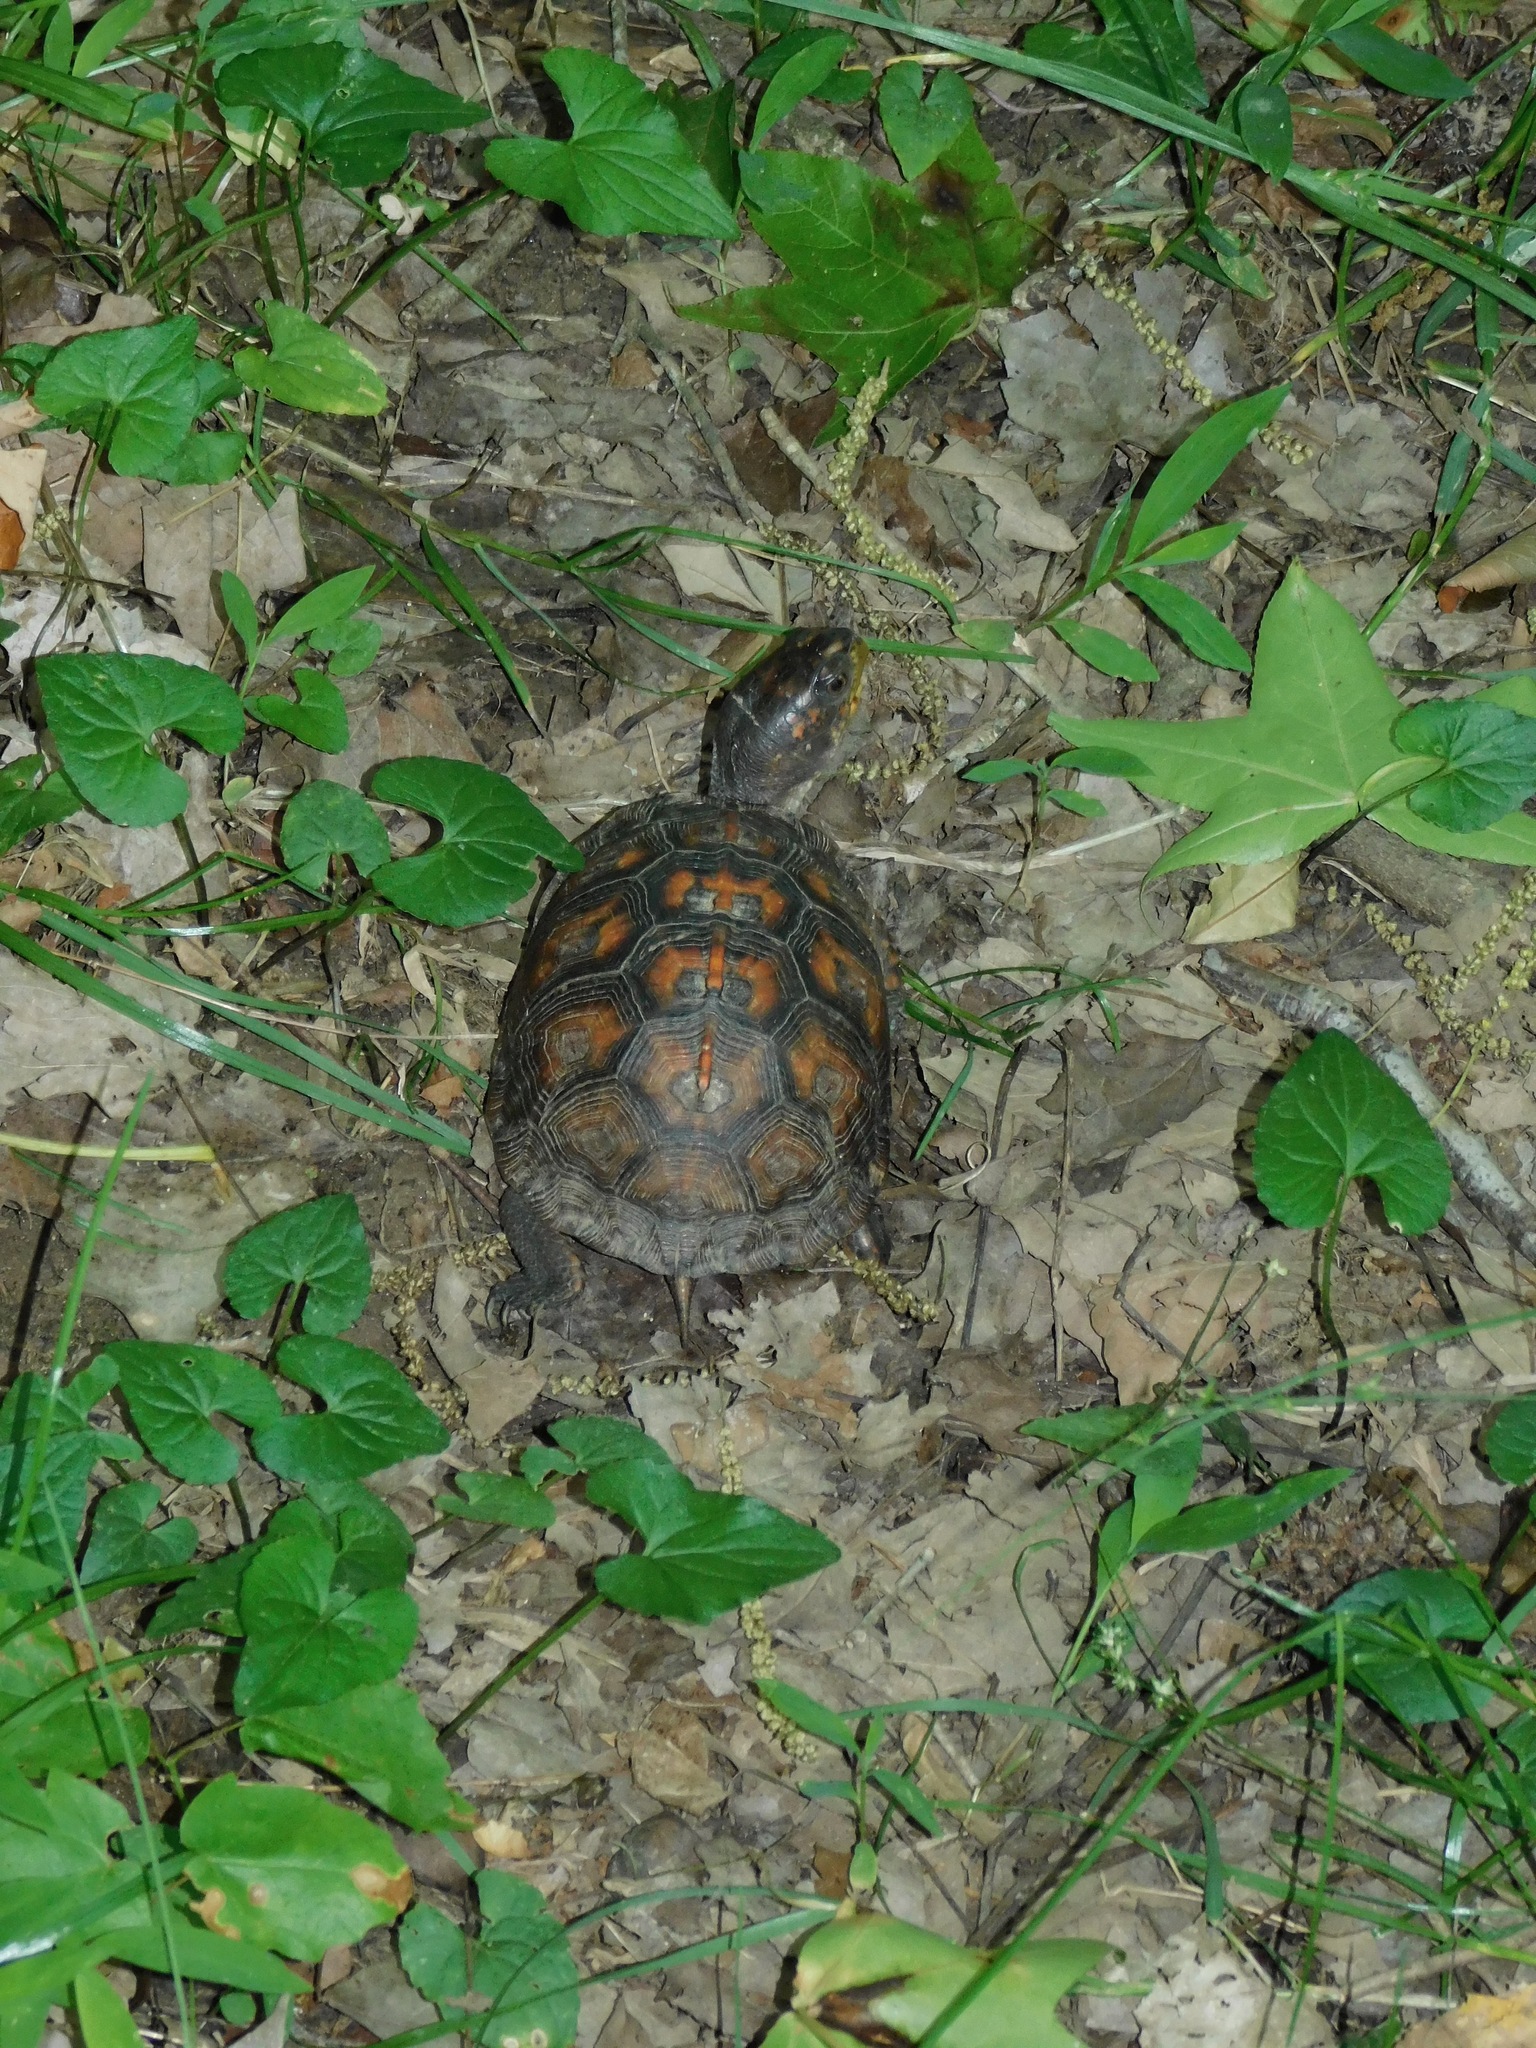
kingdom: Animalia
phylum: Chordata
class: Testudines
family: Emydidae
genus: Terrapene
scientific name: Terrapene carolina
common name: Common box turtle
